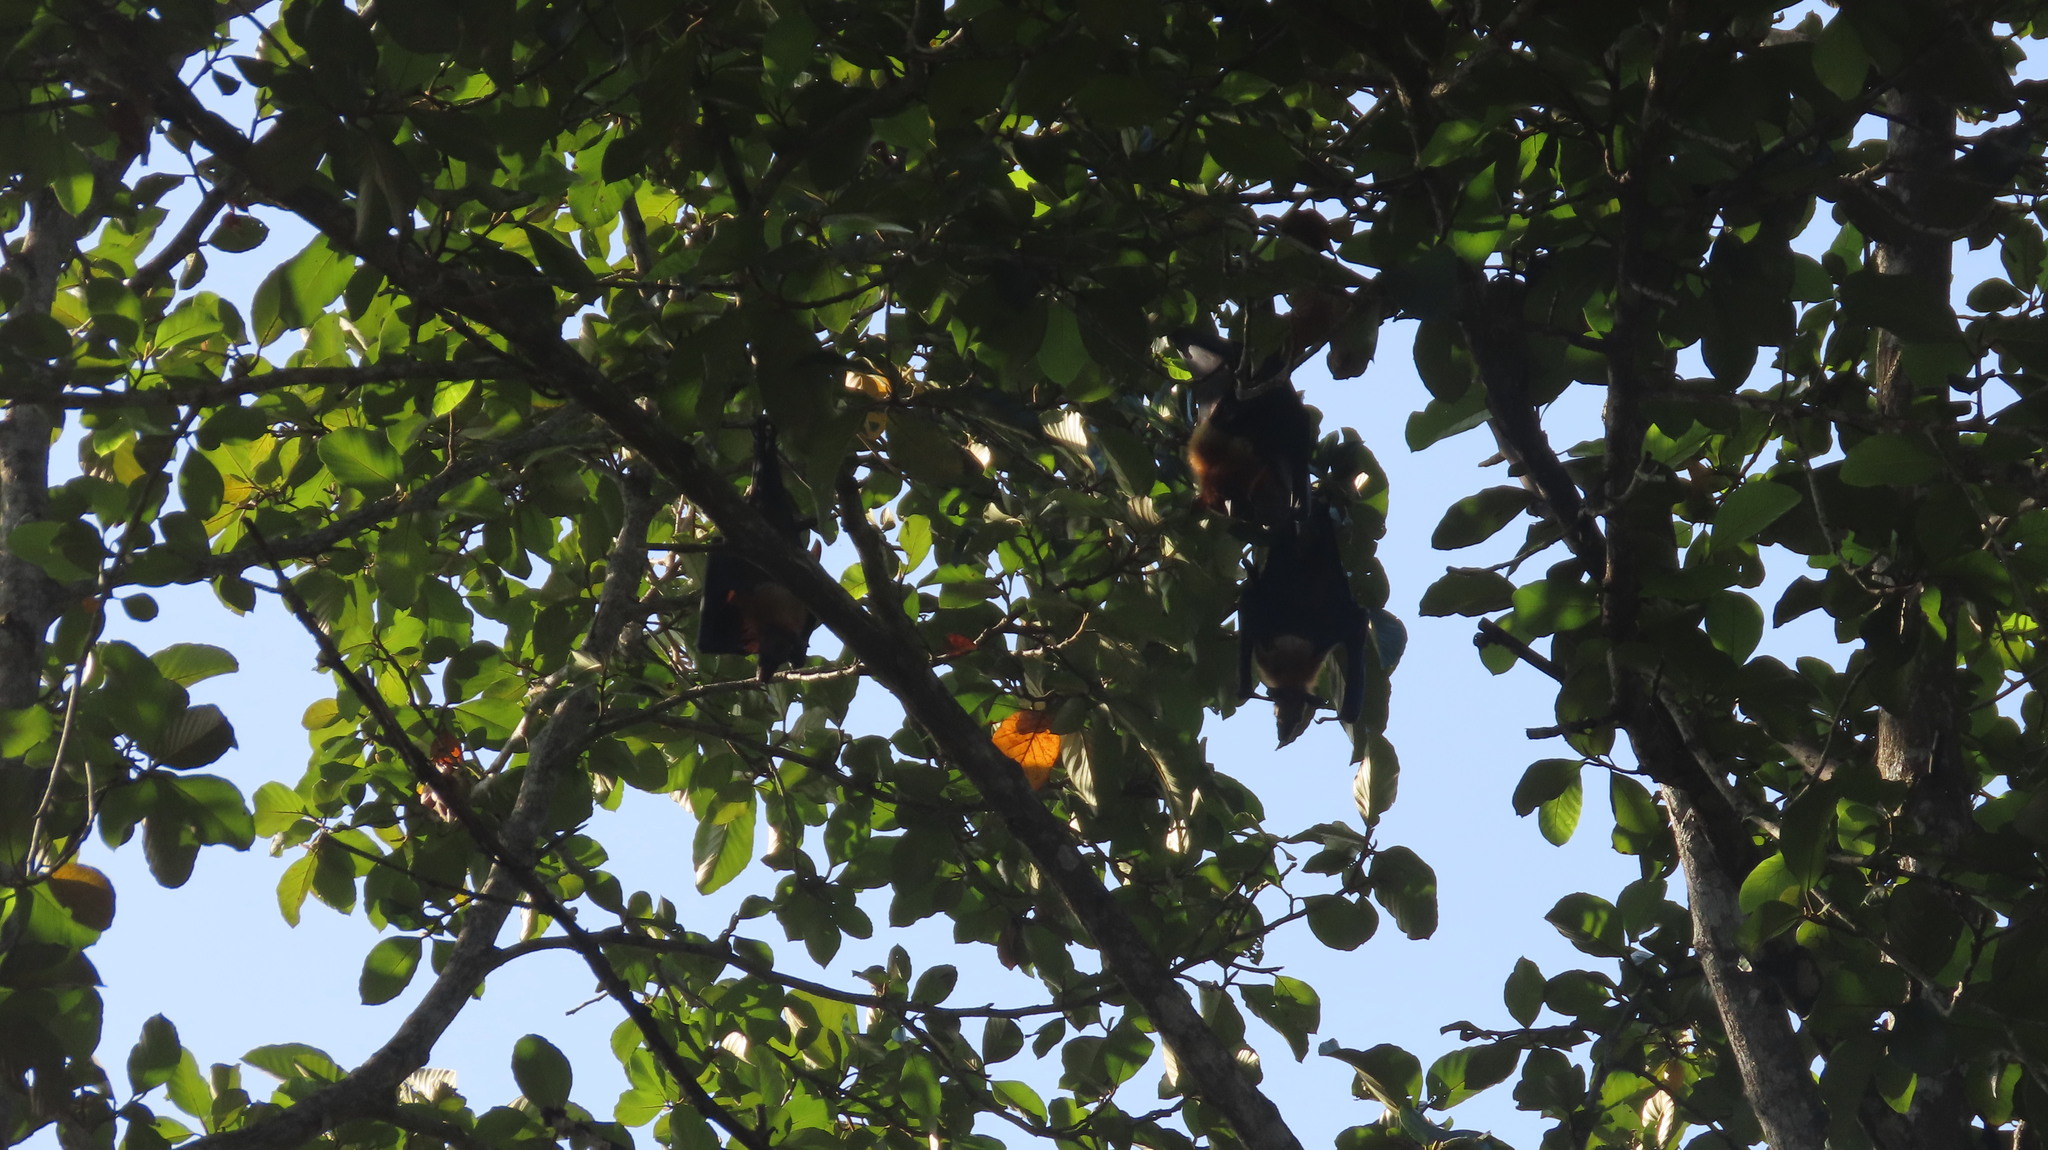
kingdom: Animalia
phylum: Chordata
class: Mammalia
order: Chiroptera
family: Pteropodidae
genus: Pteropus
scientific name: Pteropus vampyrus
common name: Large flying fox
